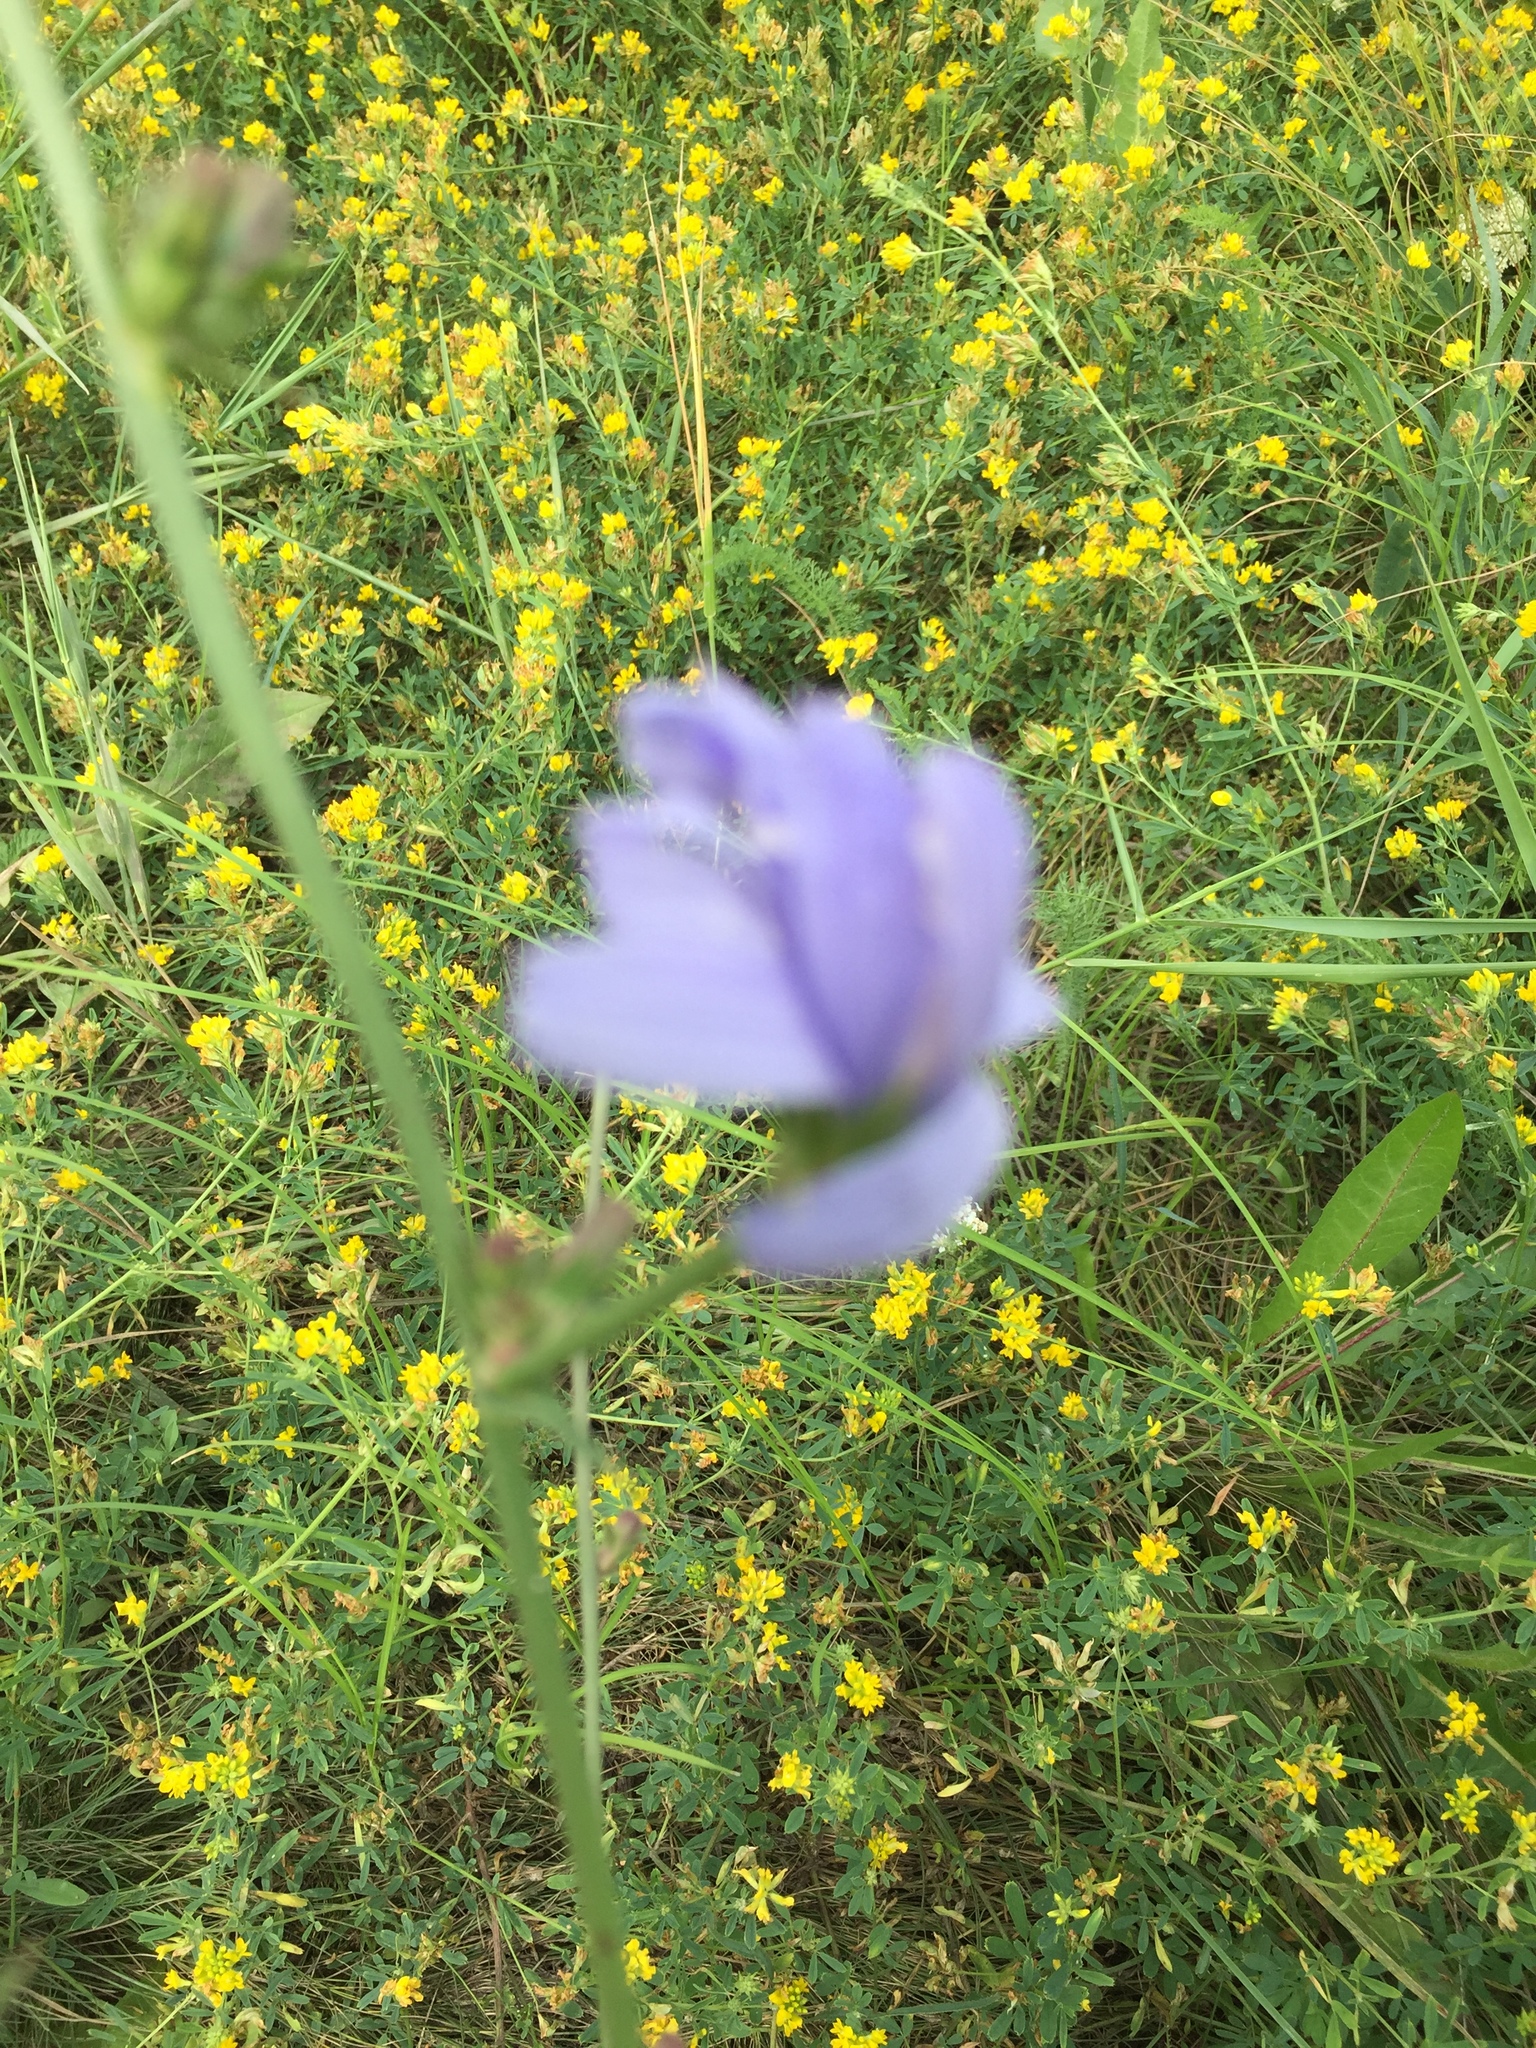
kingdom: Plantae
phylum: Tracheophyta
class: Magnoliopsida
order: Asterales
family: Asteraceae
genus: Cichorium
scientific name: Cichorium intybus
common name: Chicory
